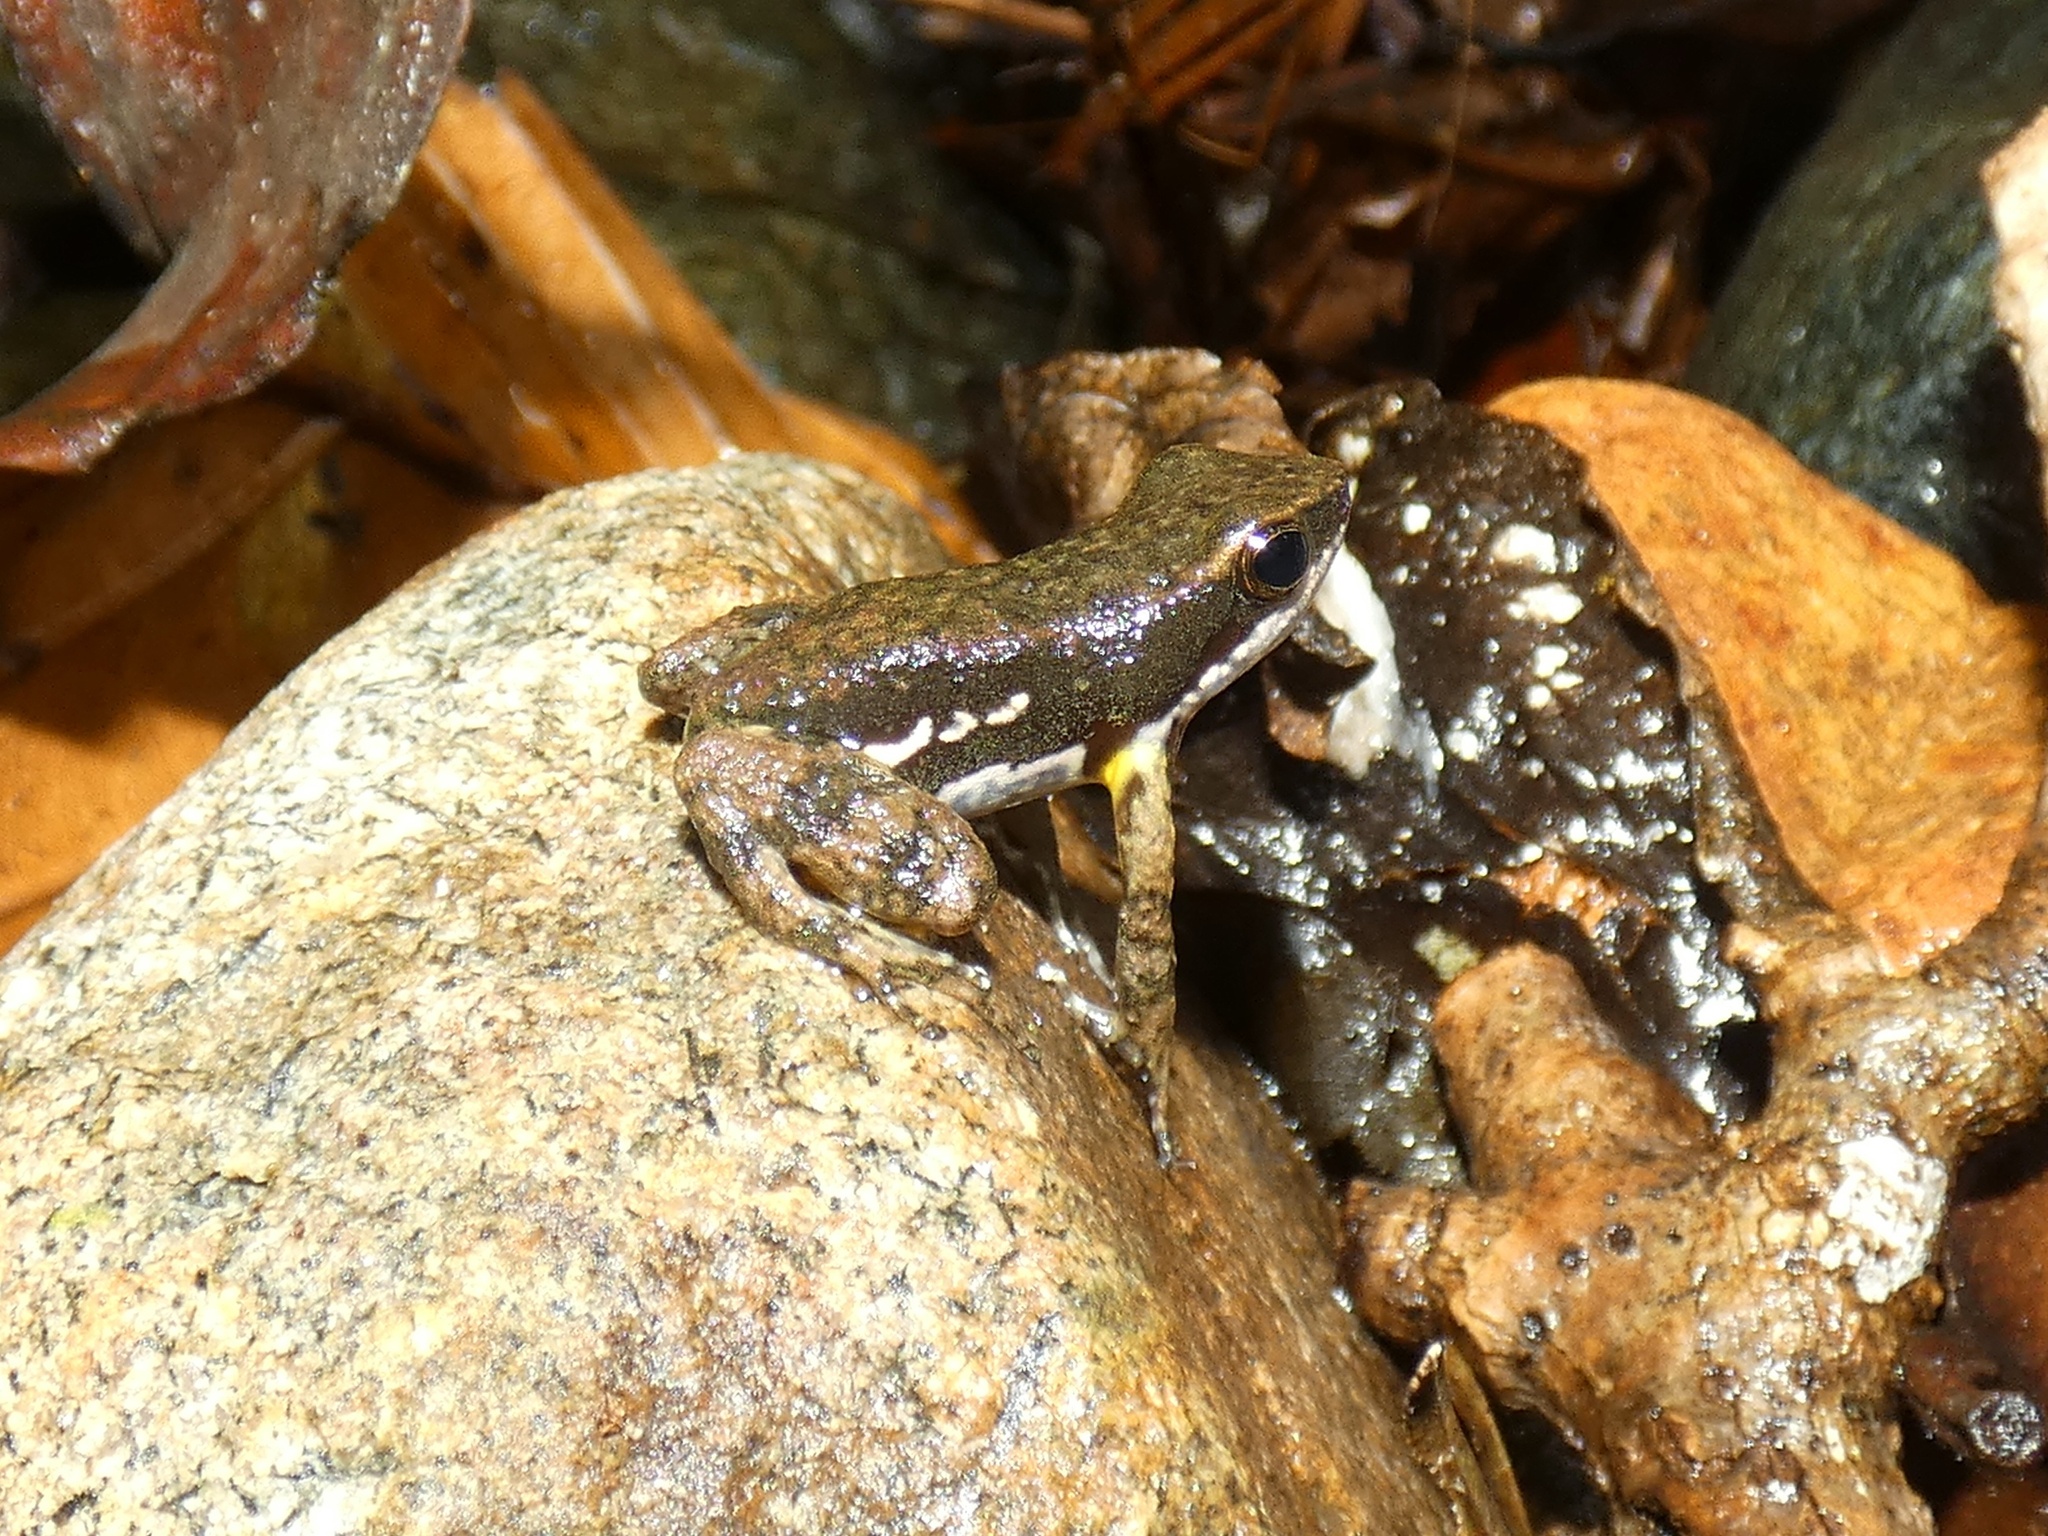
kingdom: Animalia
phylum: Chordata
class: Amphibia
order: Anura
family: Dendrobatidae
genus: Colostethus
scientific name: Colostethus panamansis
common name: Panama rocket frog
